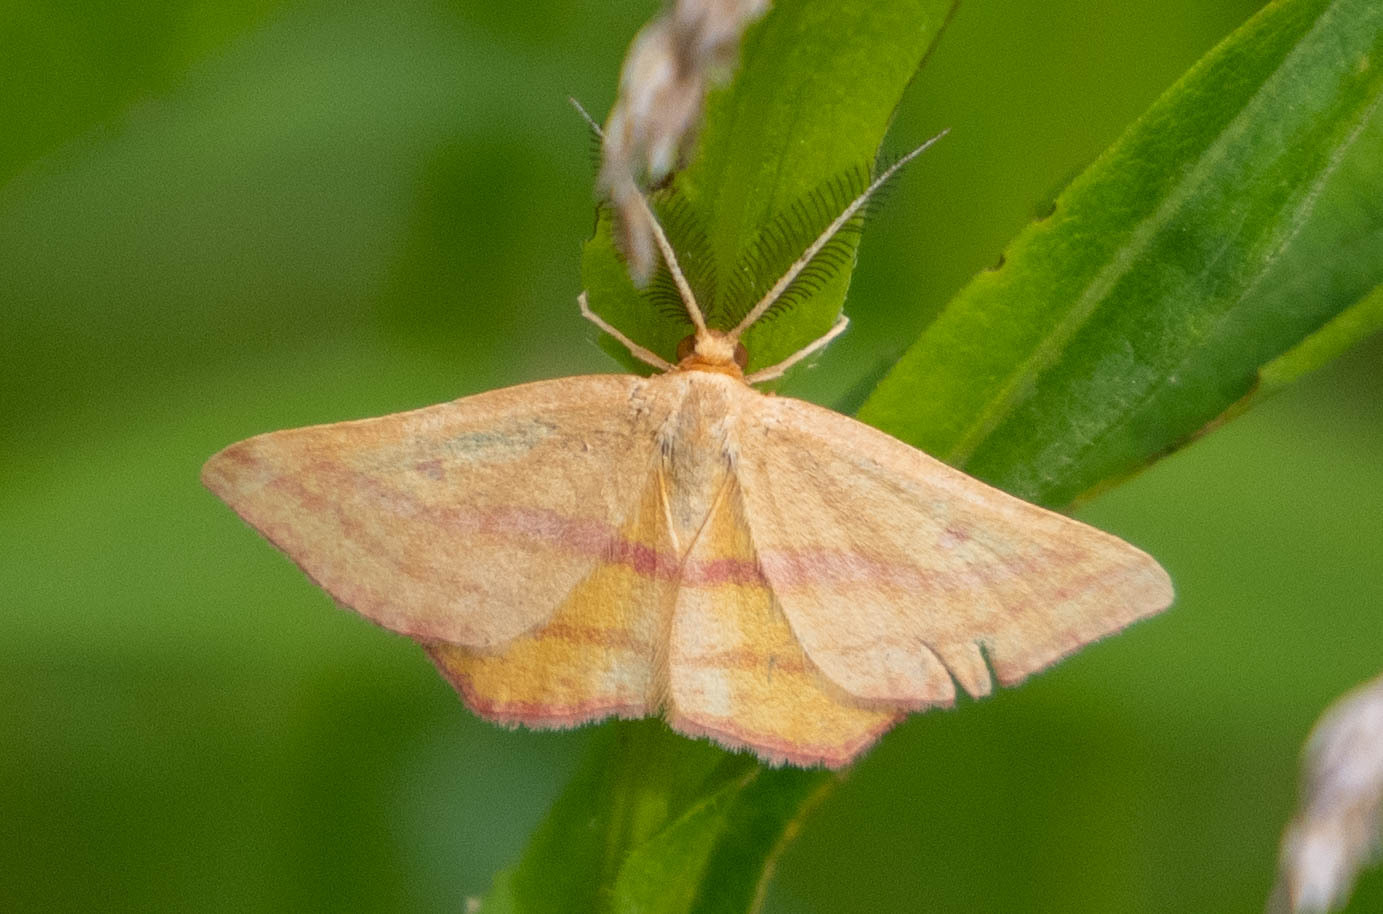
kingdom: Animalia
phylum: Arthropoda
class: Insecta
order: Lepidoptera
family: Geometridae
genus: Haematopis
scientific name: Haematopis grataria
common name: Chickweed geometer
